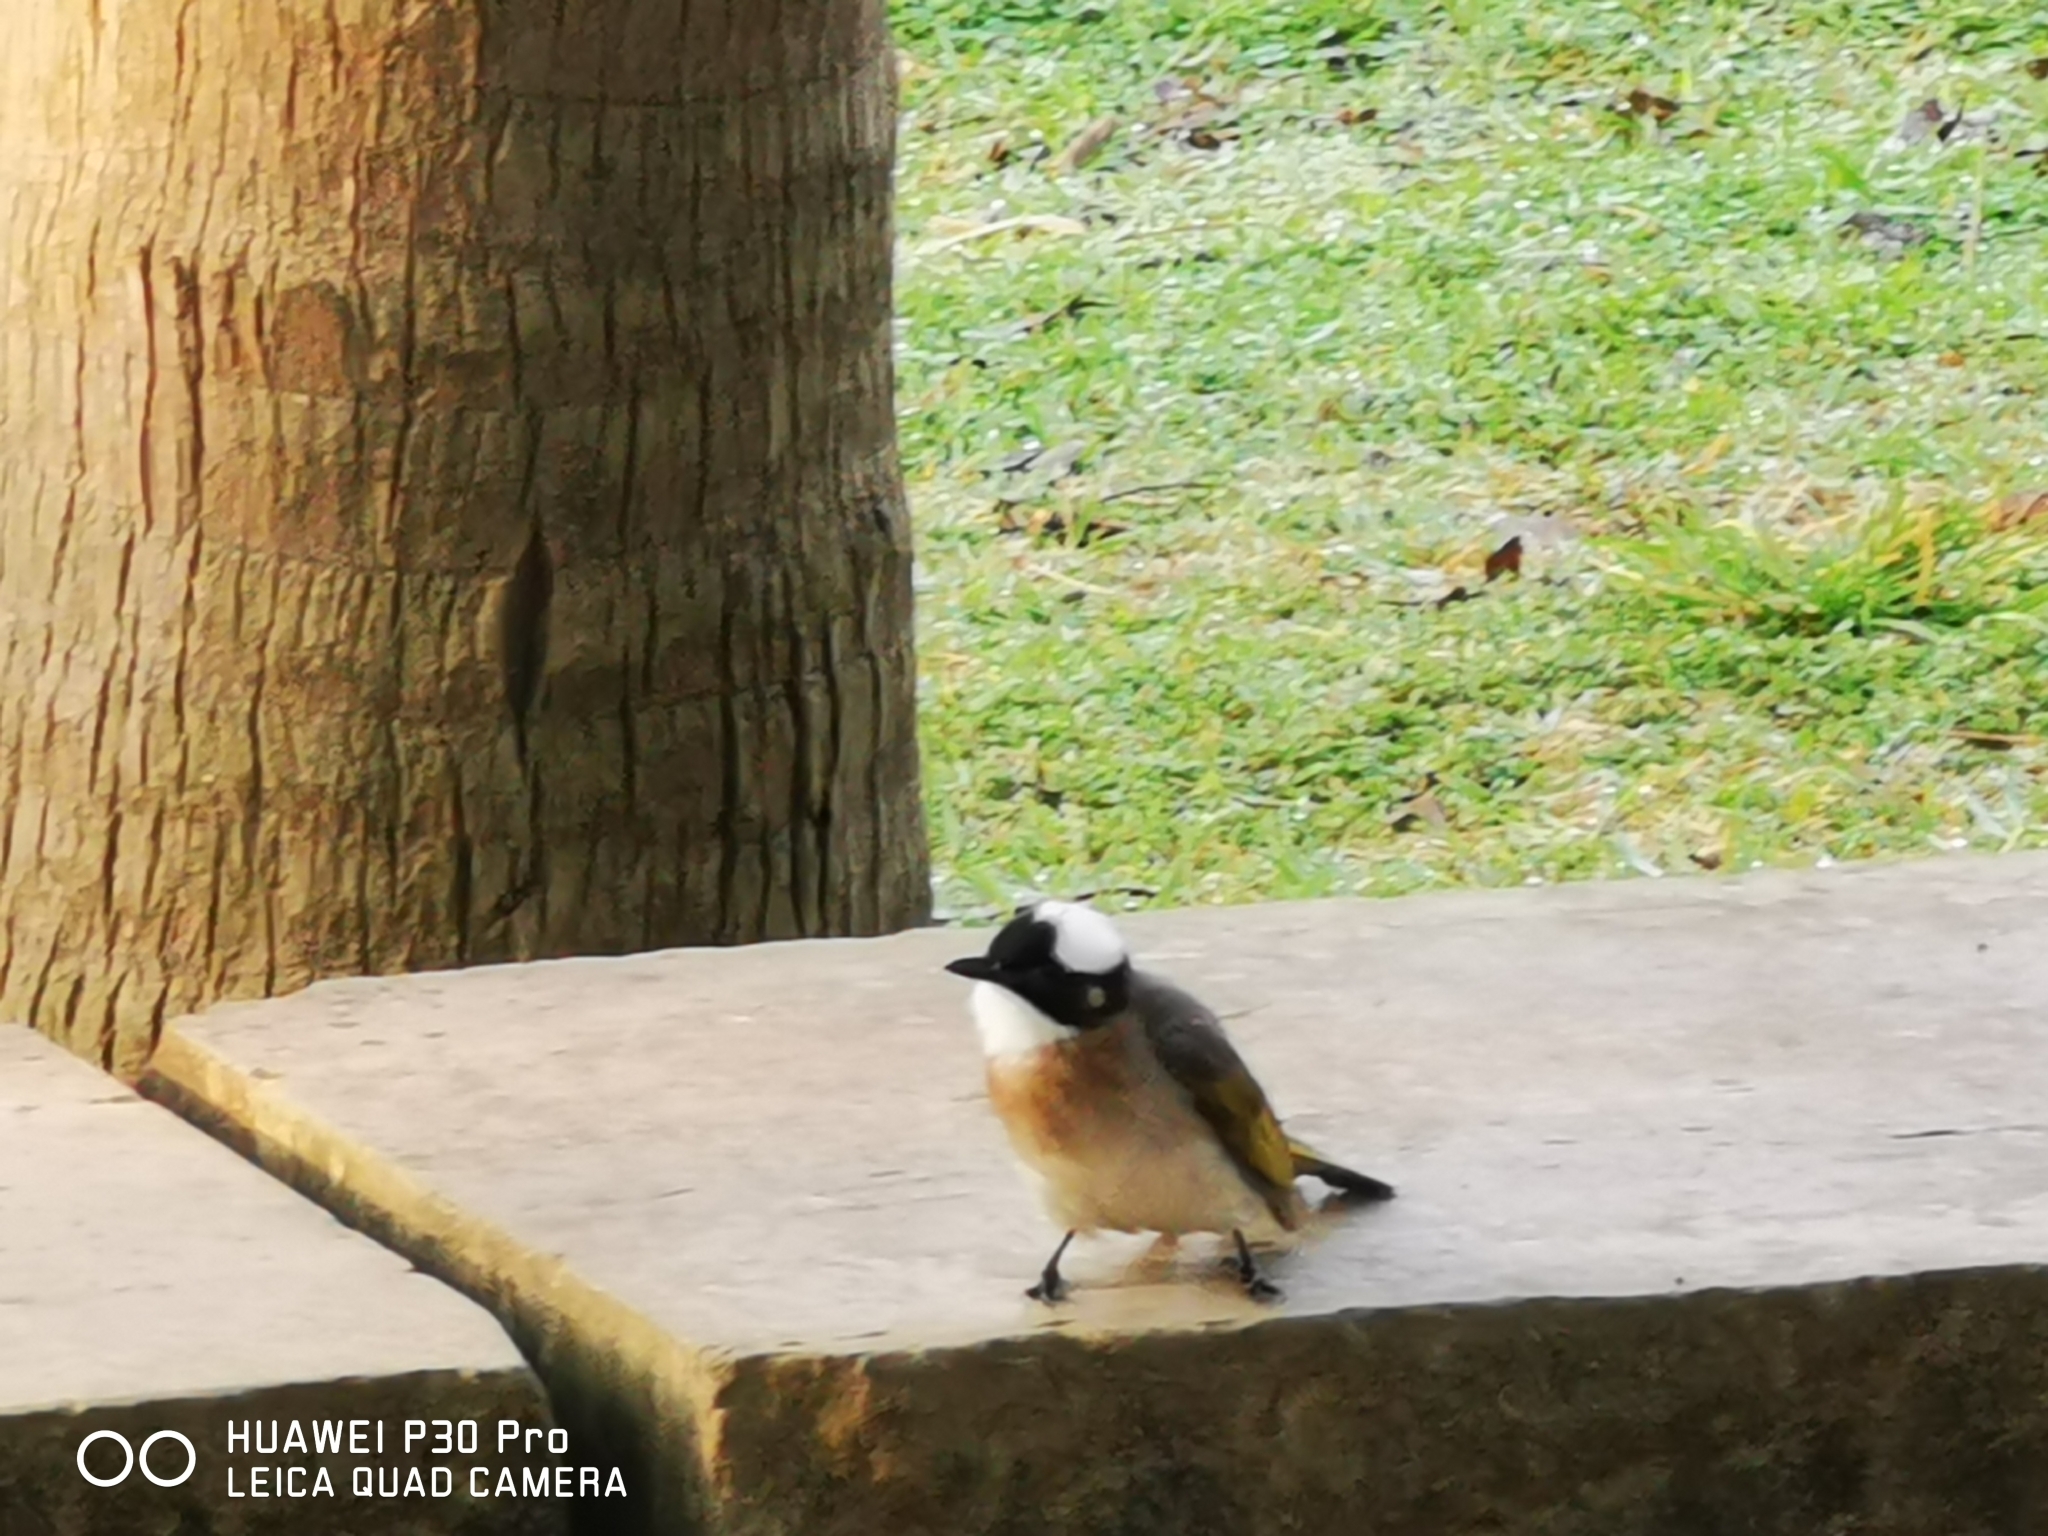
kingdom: Animalia
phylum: Chordata
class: Aves
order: Passeriformes
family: Pycnonotidae
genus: Pycnonotus
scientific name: Pycnonotus sinensis
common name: Light-vented bulbul
